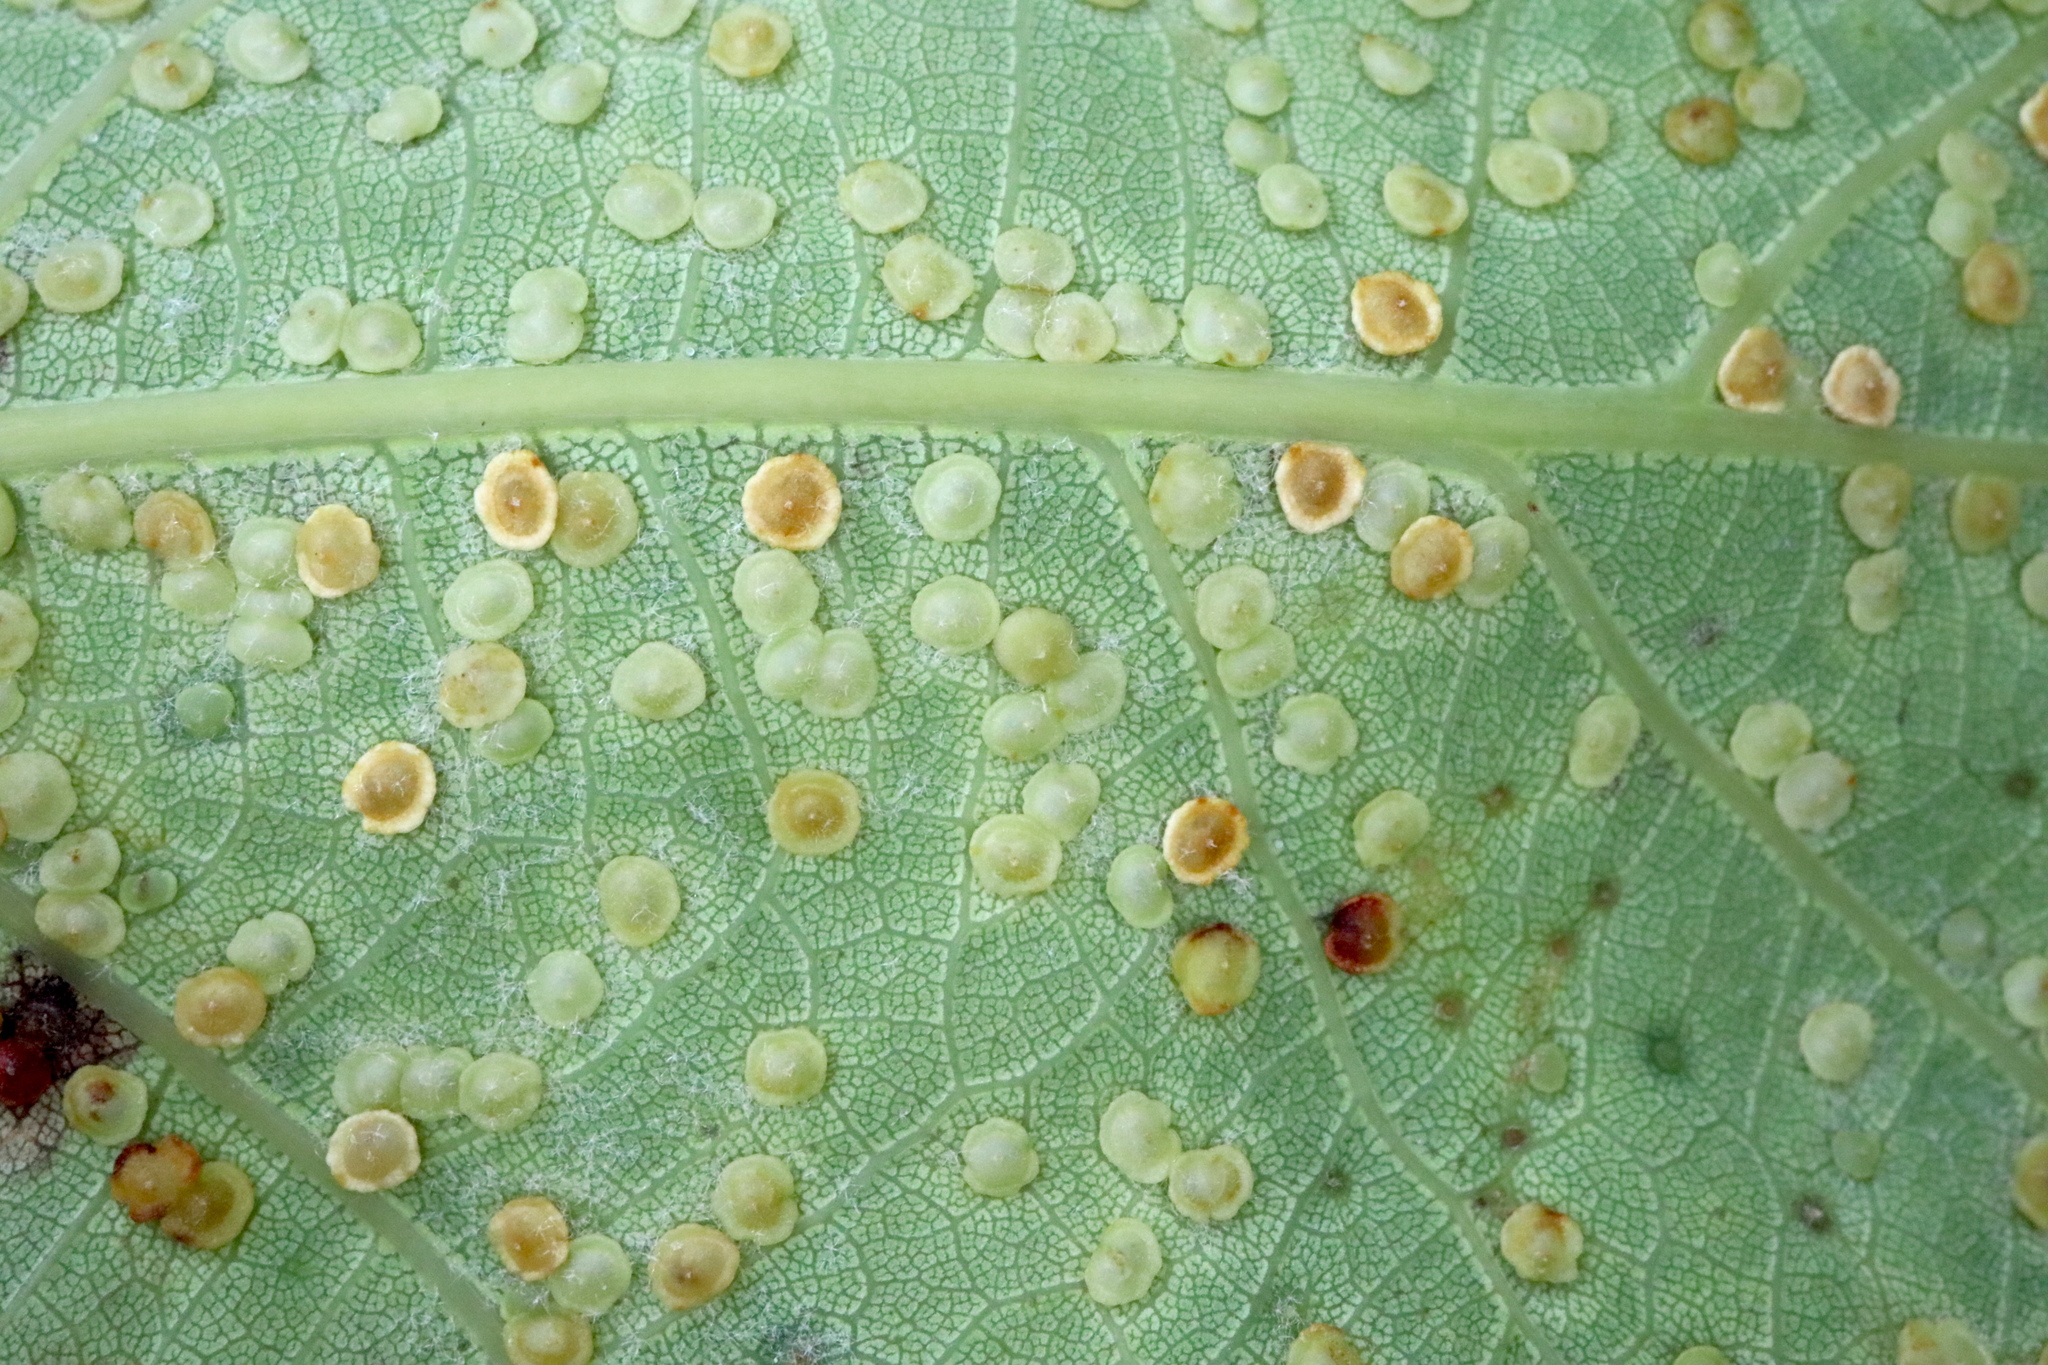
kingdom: Animalia
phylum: Arthropoda
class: Insecta
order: Hymenoptera
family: Cynipidae
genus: Neuroterus
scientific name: Neuroterus
